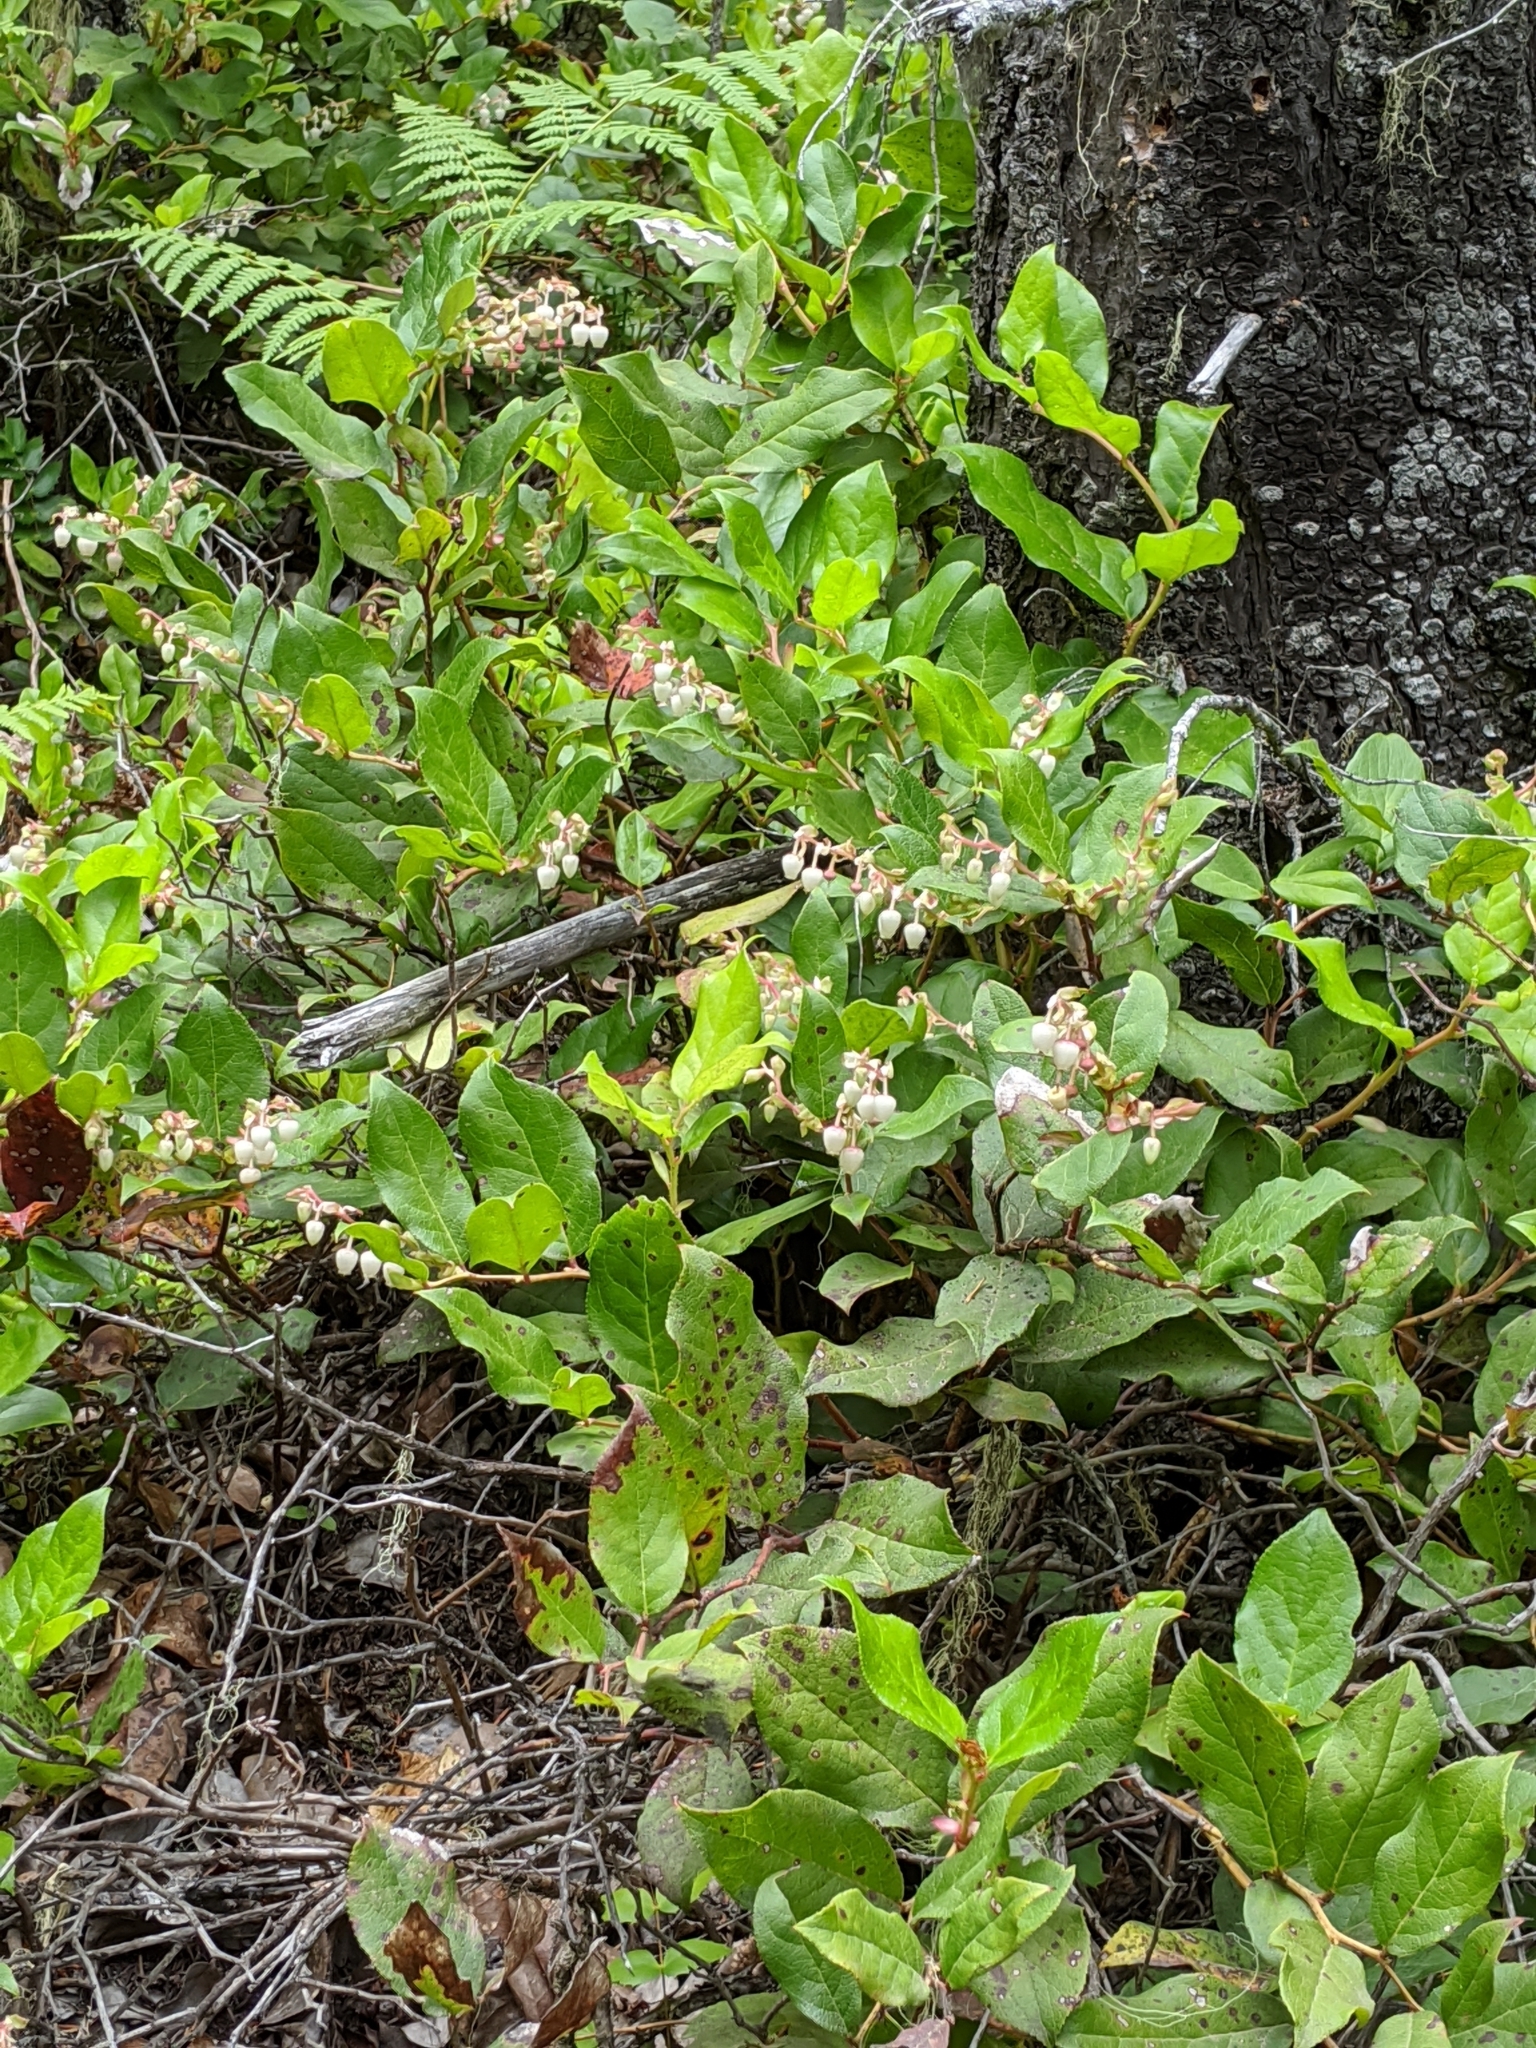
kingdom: Plantae
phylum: Tracheophyta
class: Magnoliopsida
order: Ericales
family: Ericaceae
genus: Gaultheria
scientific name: Gaultheria shallon
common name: Shallon
